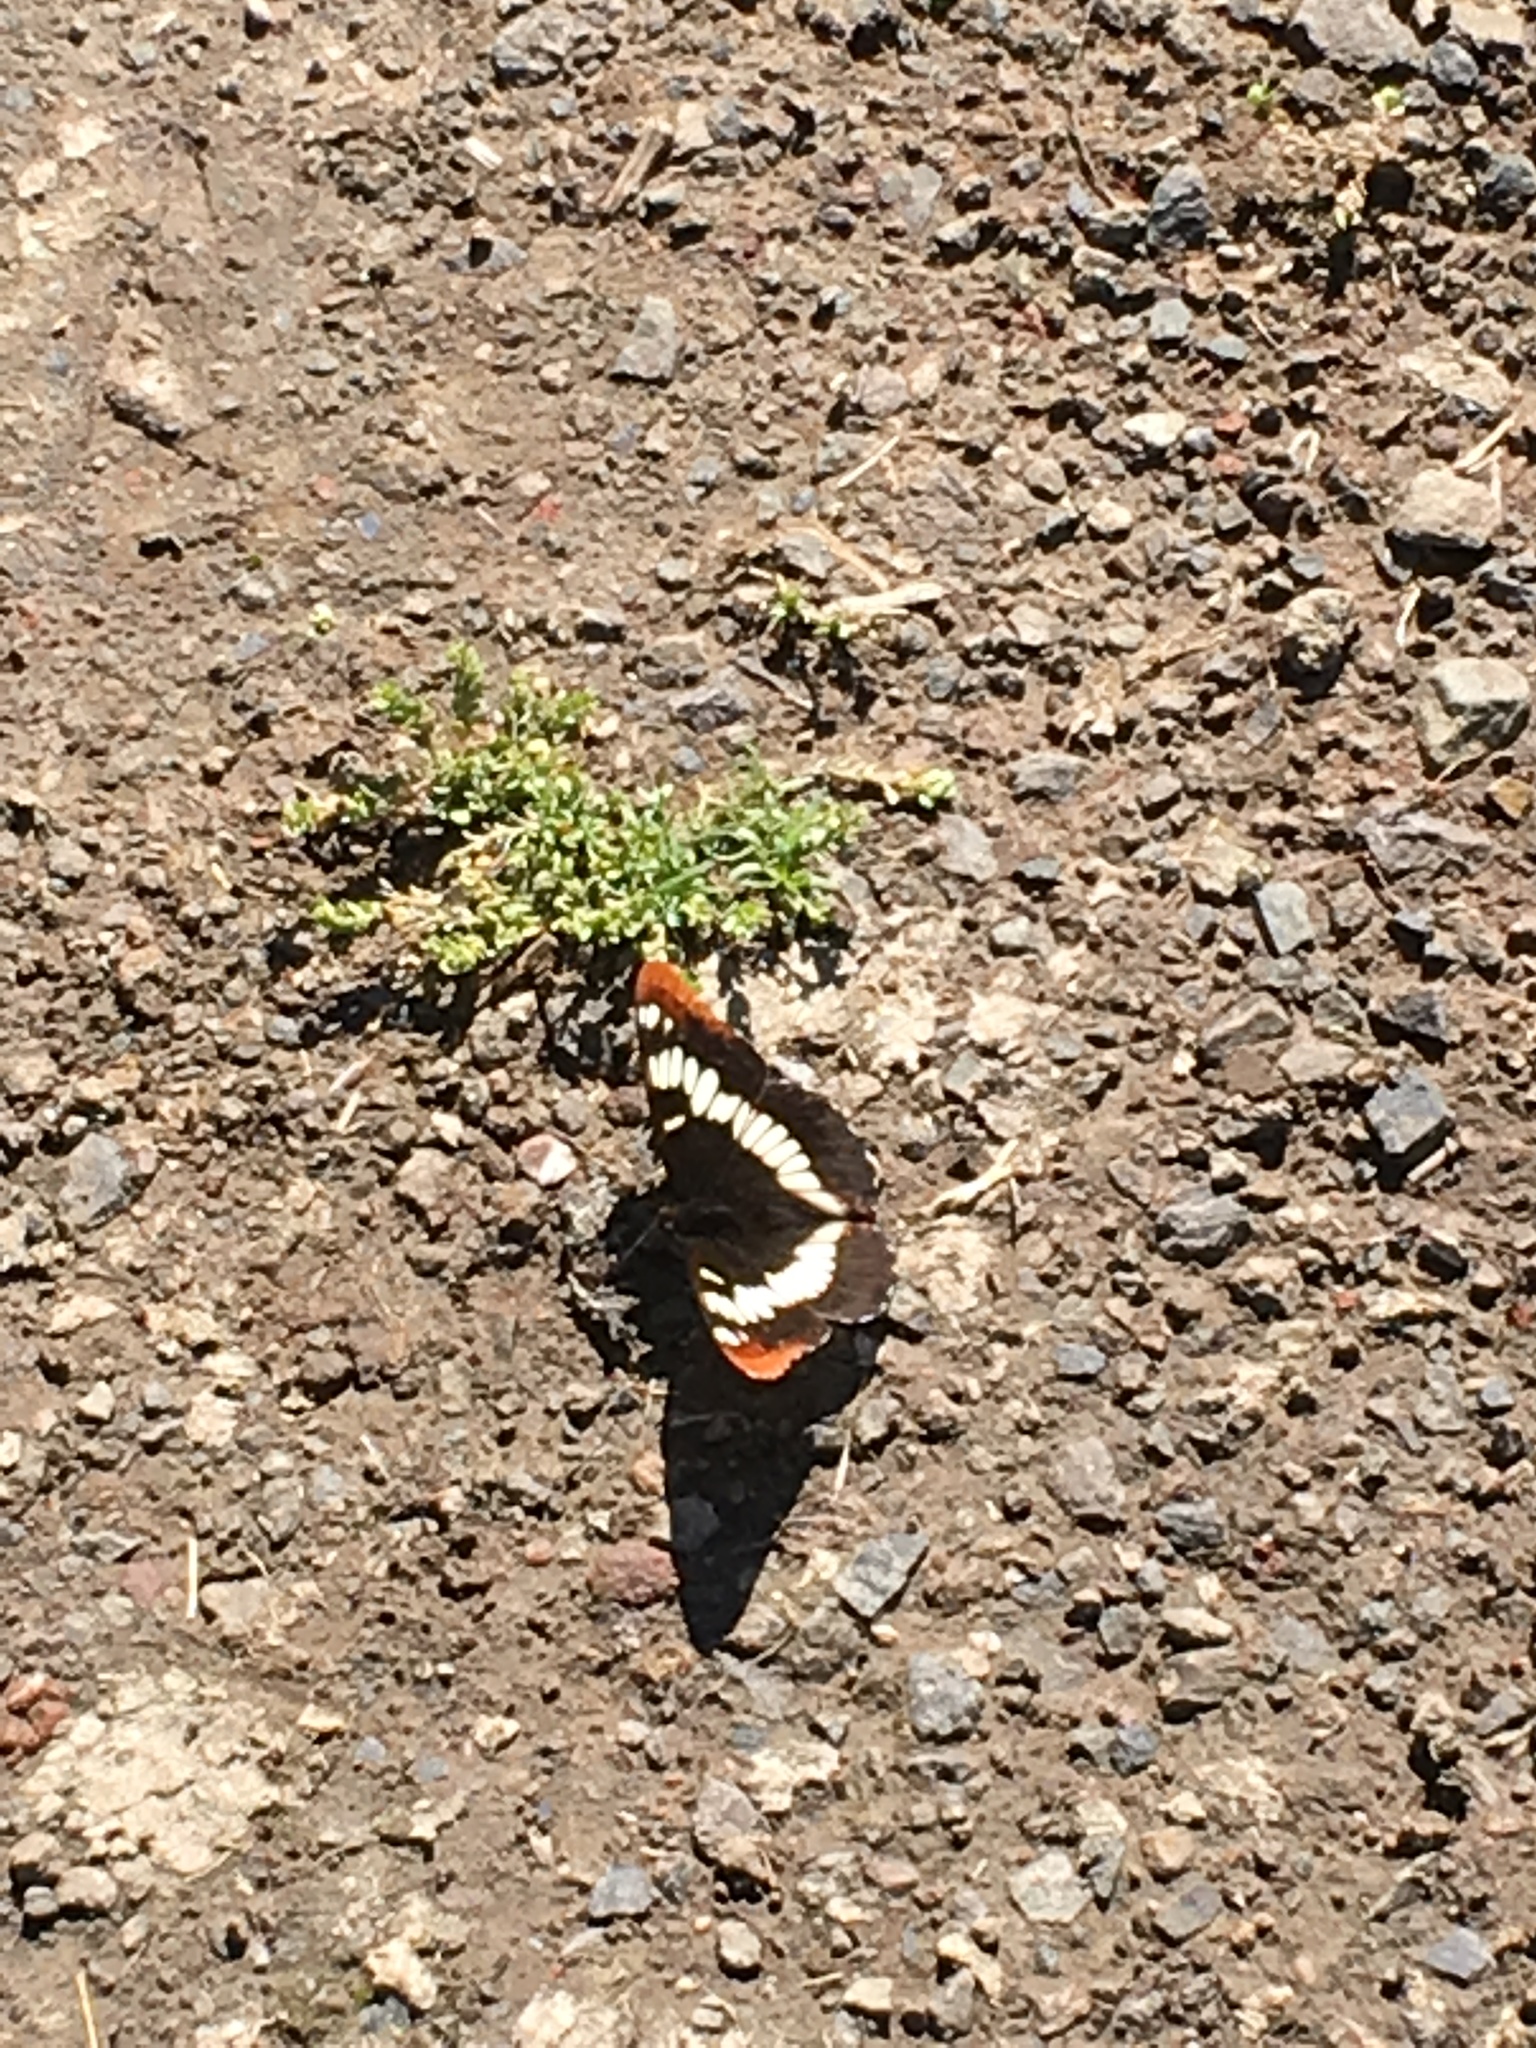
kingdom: Animalia
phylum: Arthropoda
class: Insecta
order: Lepidoptera
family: Nymphalidae
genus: Limenitis
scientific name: Limenitis lorquini
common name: Lorquin's admiral
